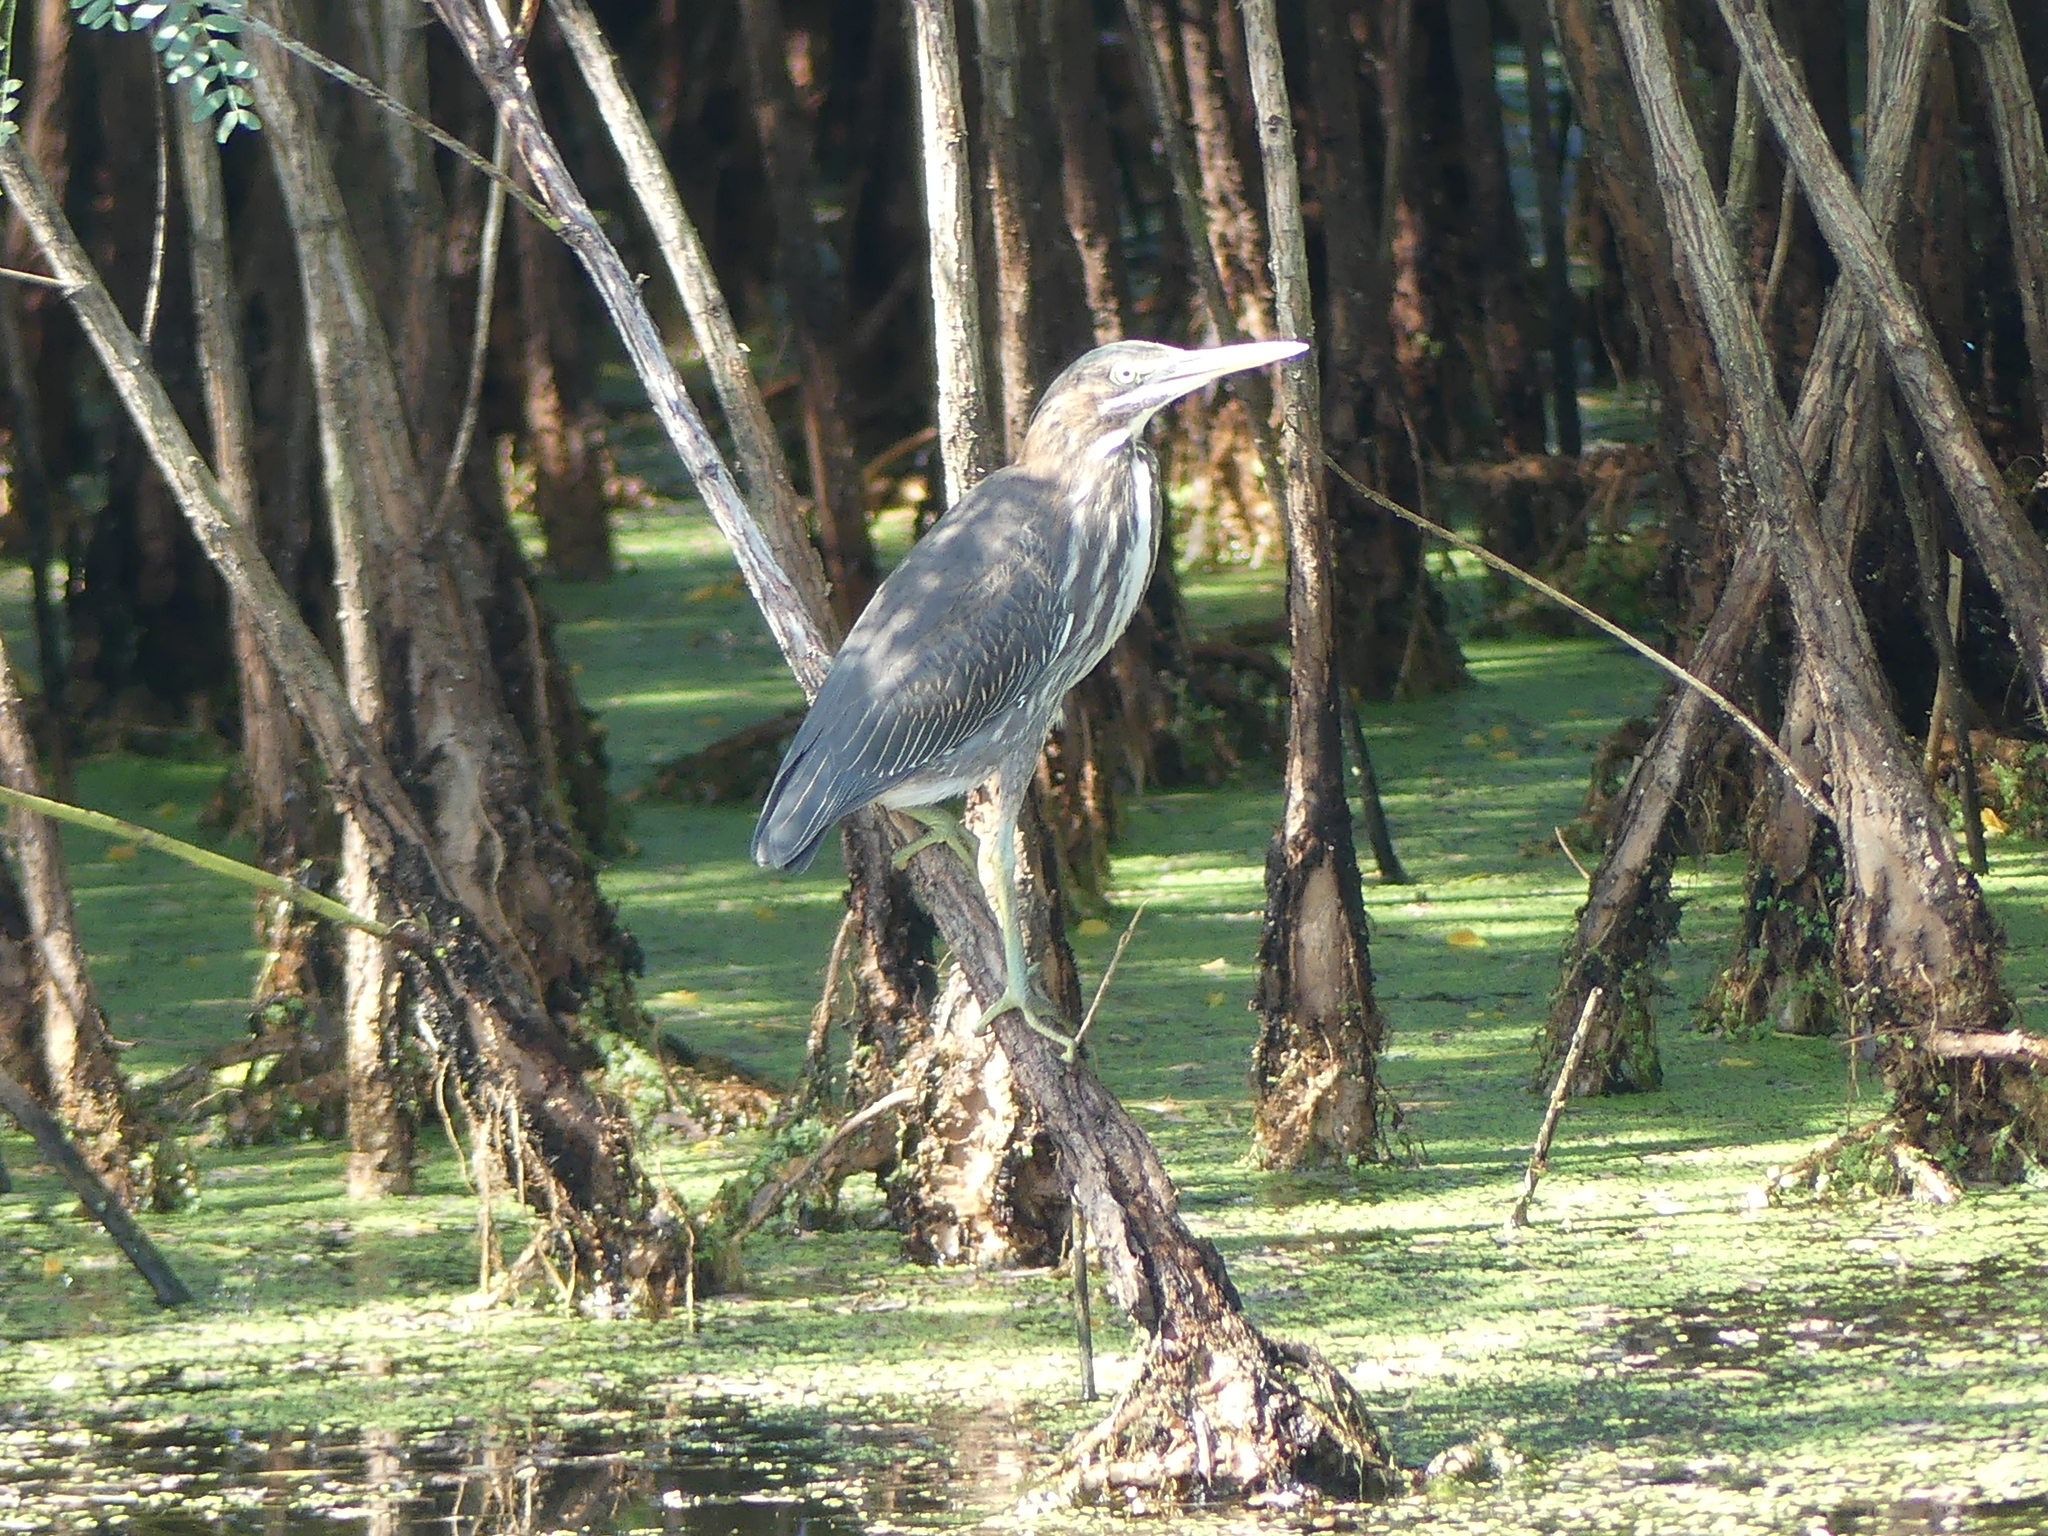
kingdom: Animalia
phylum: Chordata
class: Aves
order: Pelecaniformes
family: Ardeidae
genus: Butorides
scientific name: Butorides virescens
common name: Green heron
